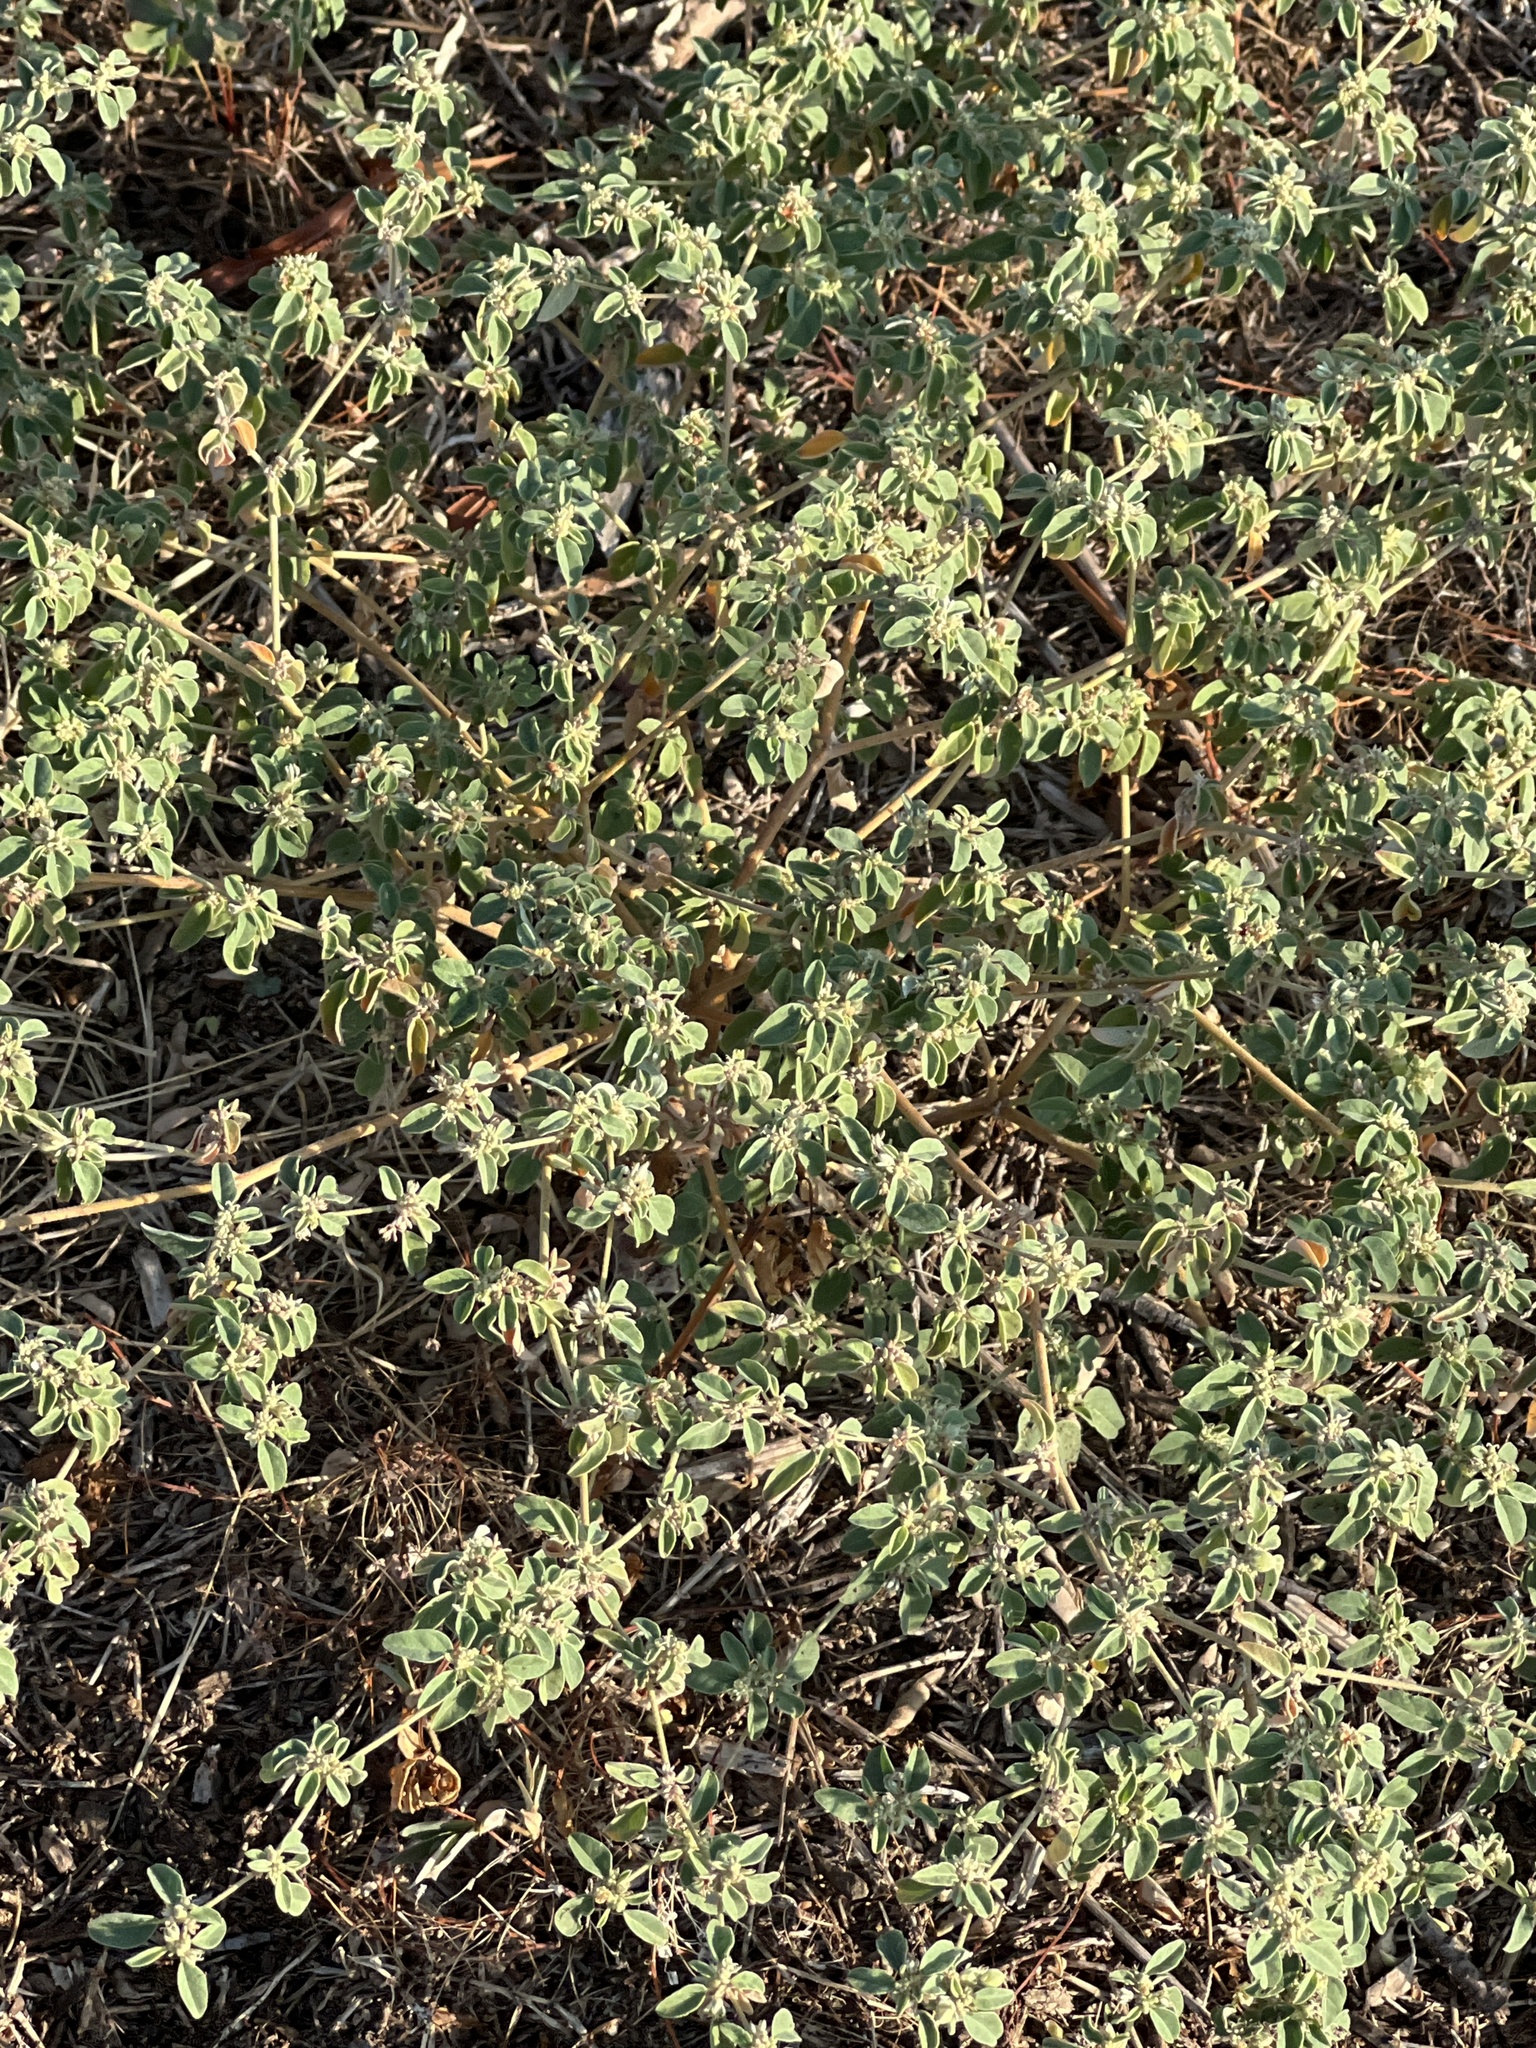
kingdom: Plantae
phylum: Tracheophyta
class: Magnoliopsida
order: Malpighiales
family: Euphorbiaceae
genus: Croton
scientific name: Croton monanthogynus
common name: One-seed croton
